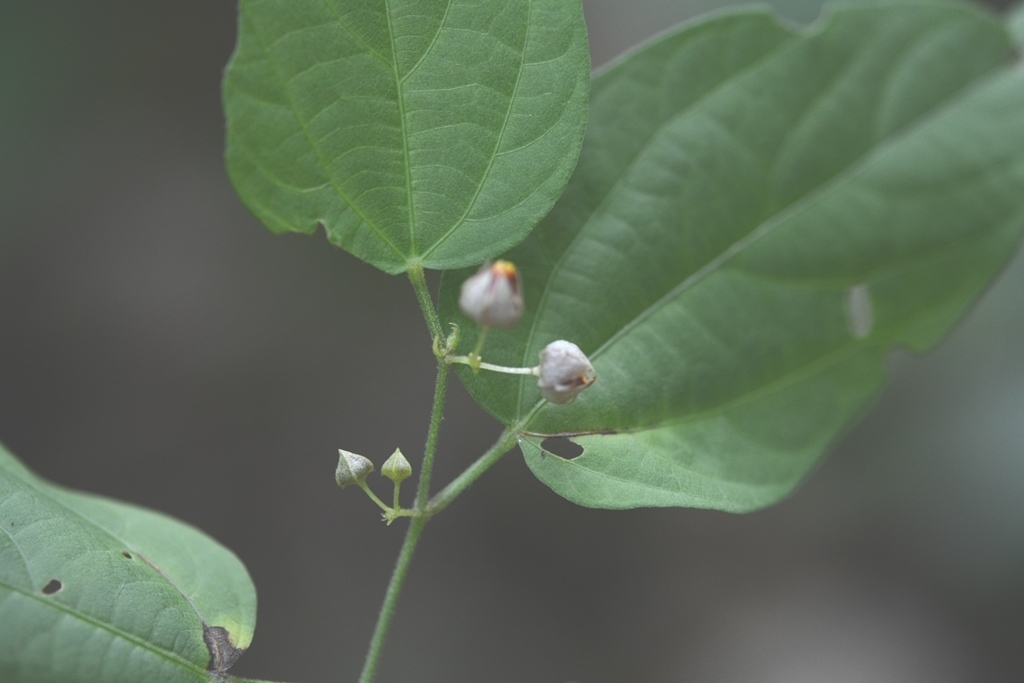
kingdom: Plantae
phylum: Tracheophyta
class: Magnoliopsida
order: Malvales
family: Malvaceae
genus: Byttneria
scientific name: Byttneria aculeata
